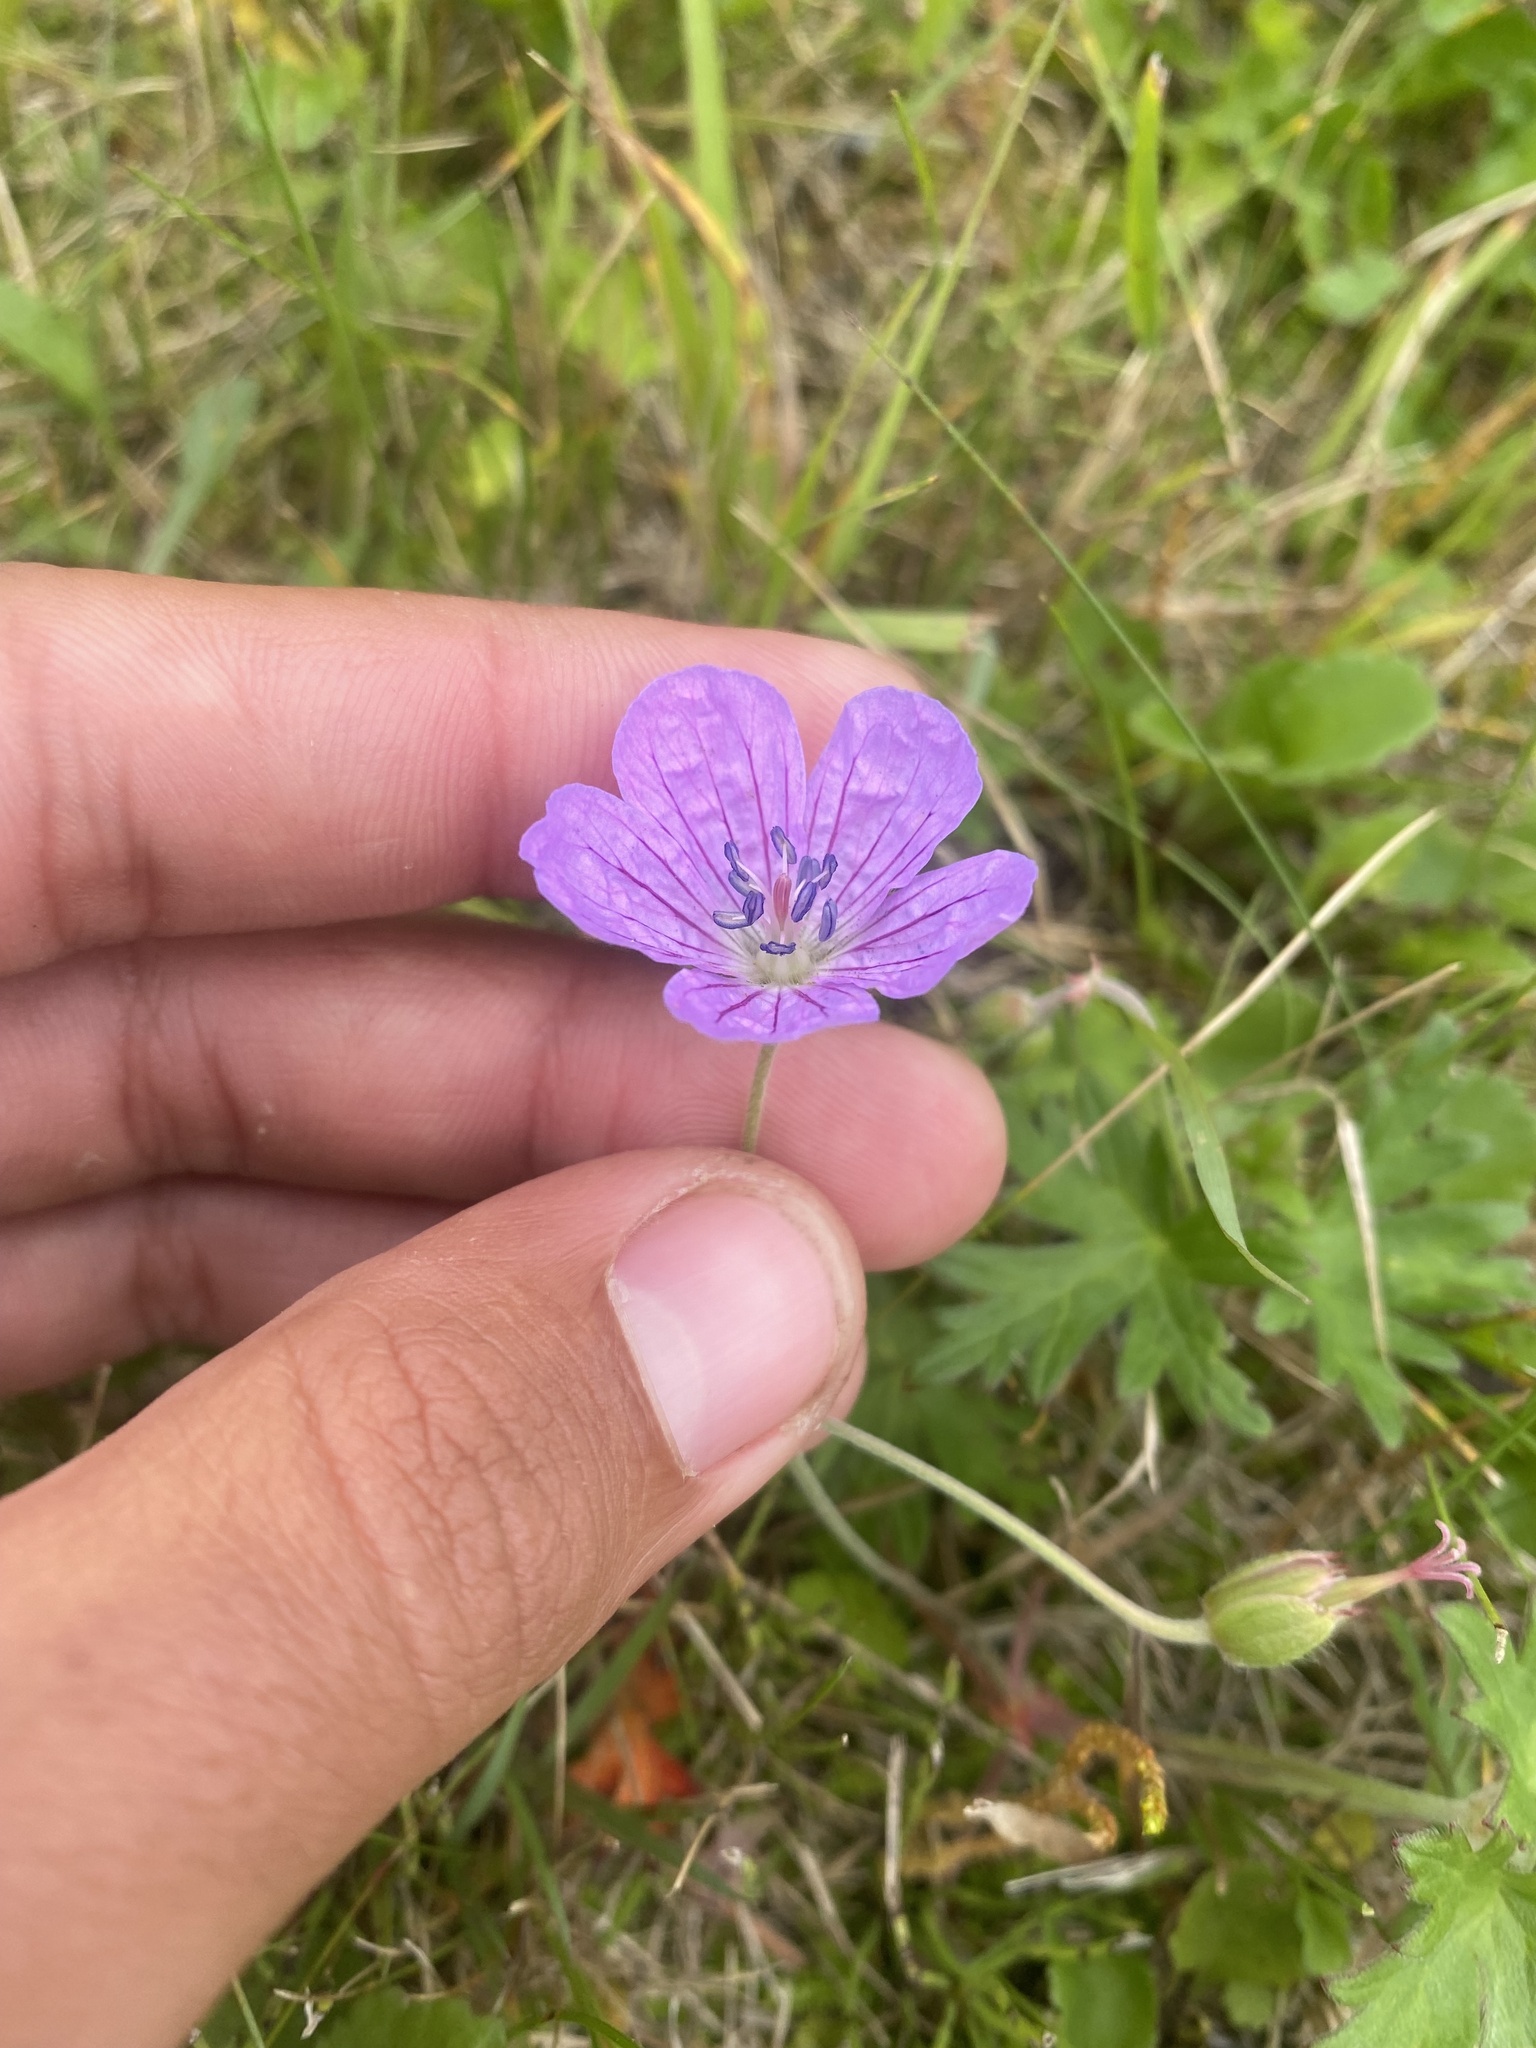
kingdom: Plantae
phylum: Tracheophyta
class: Magnoliopsida
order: Geraniales
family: Geraniaceae
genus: Geranium
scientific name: Geranium yesoense
